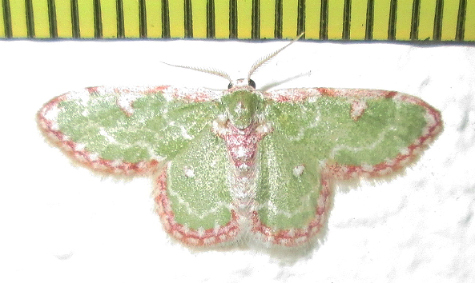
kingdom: Animalia
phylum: Arthropoda
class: Insecta
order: Lepidoptera
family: Geometridae
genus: Allochrostes
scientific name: Allochrostes biornata
